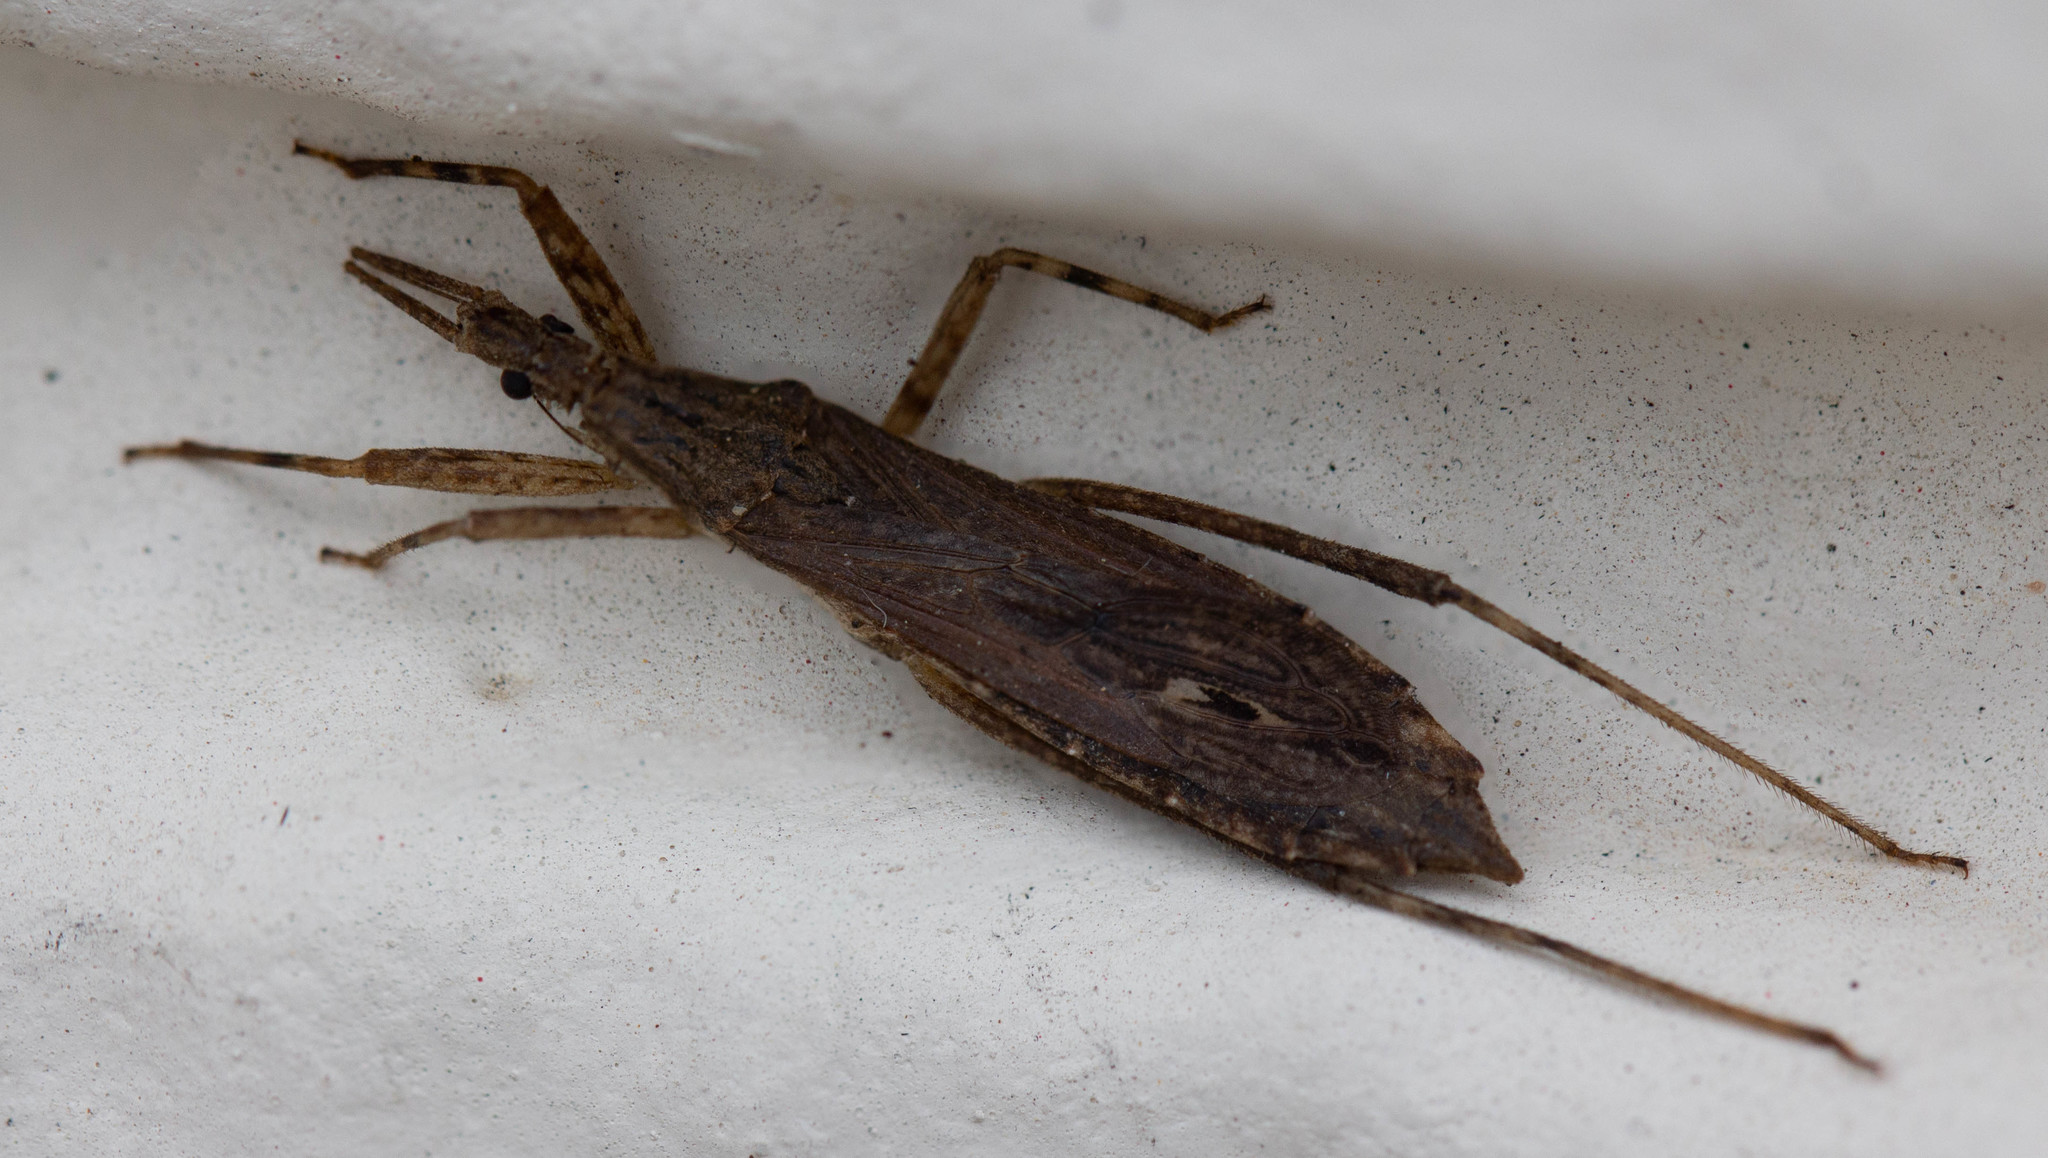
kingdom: Animalia
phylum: Arthropoda
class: Insecta
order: Hemiptera
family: Reduviidae
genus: Pygolampis
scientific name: Pygolampis pectoralis
